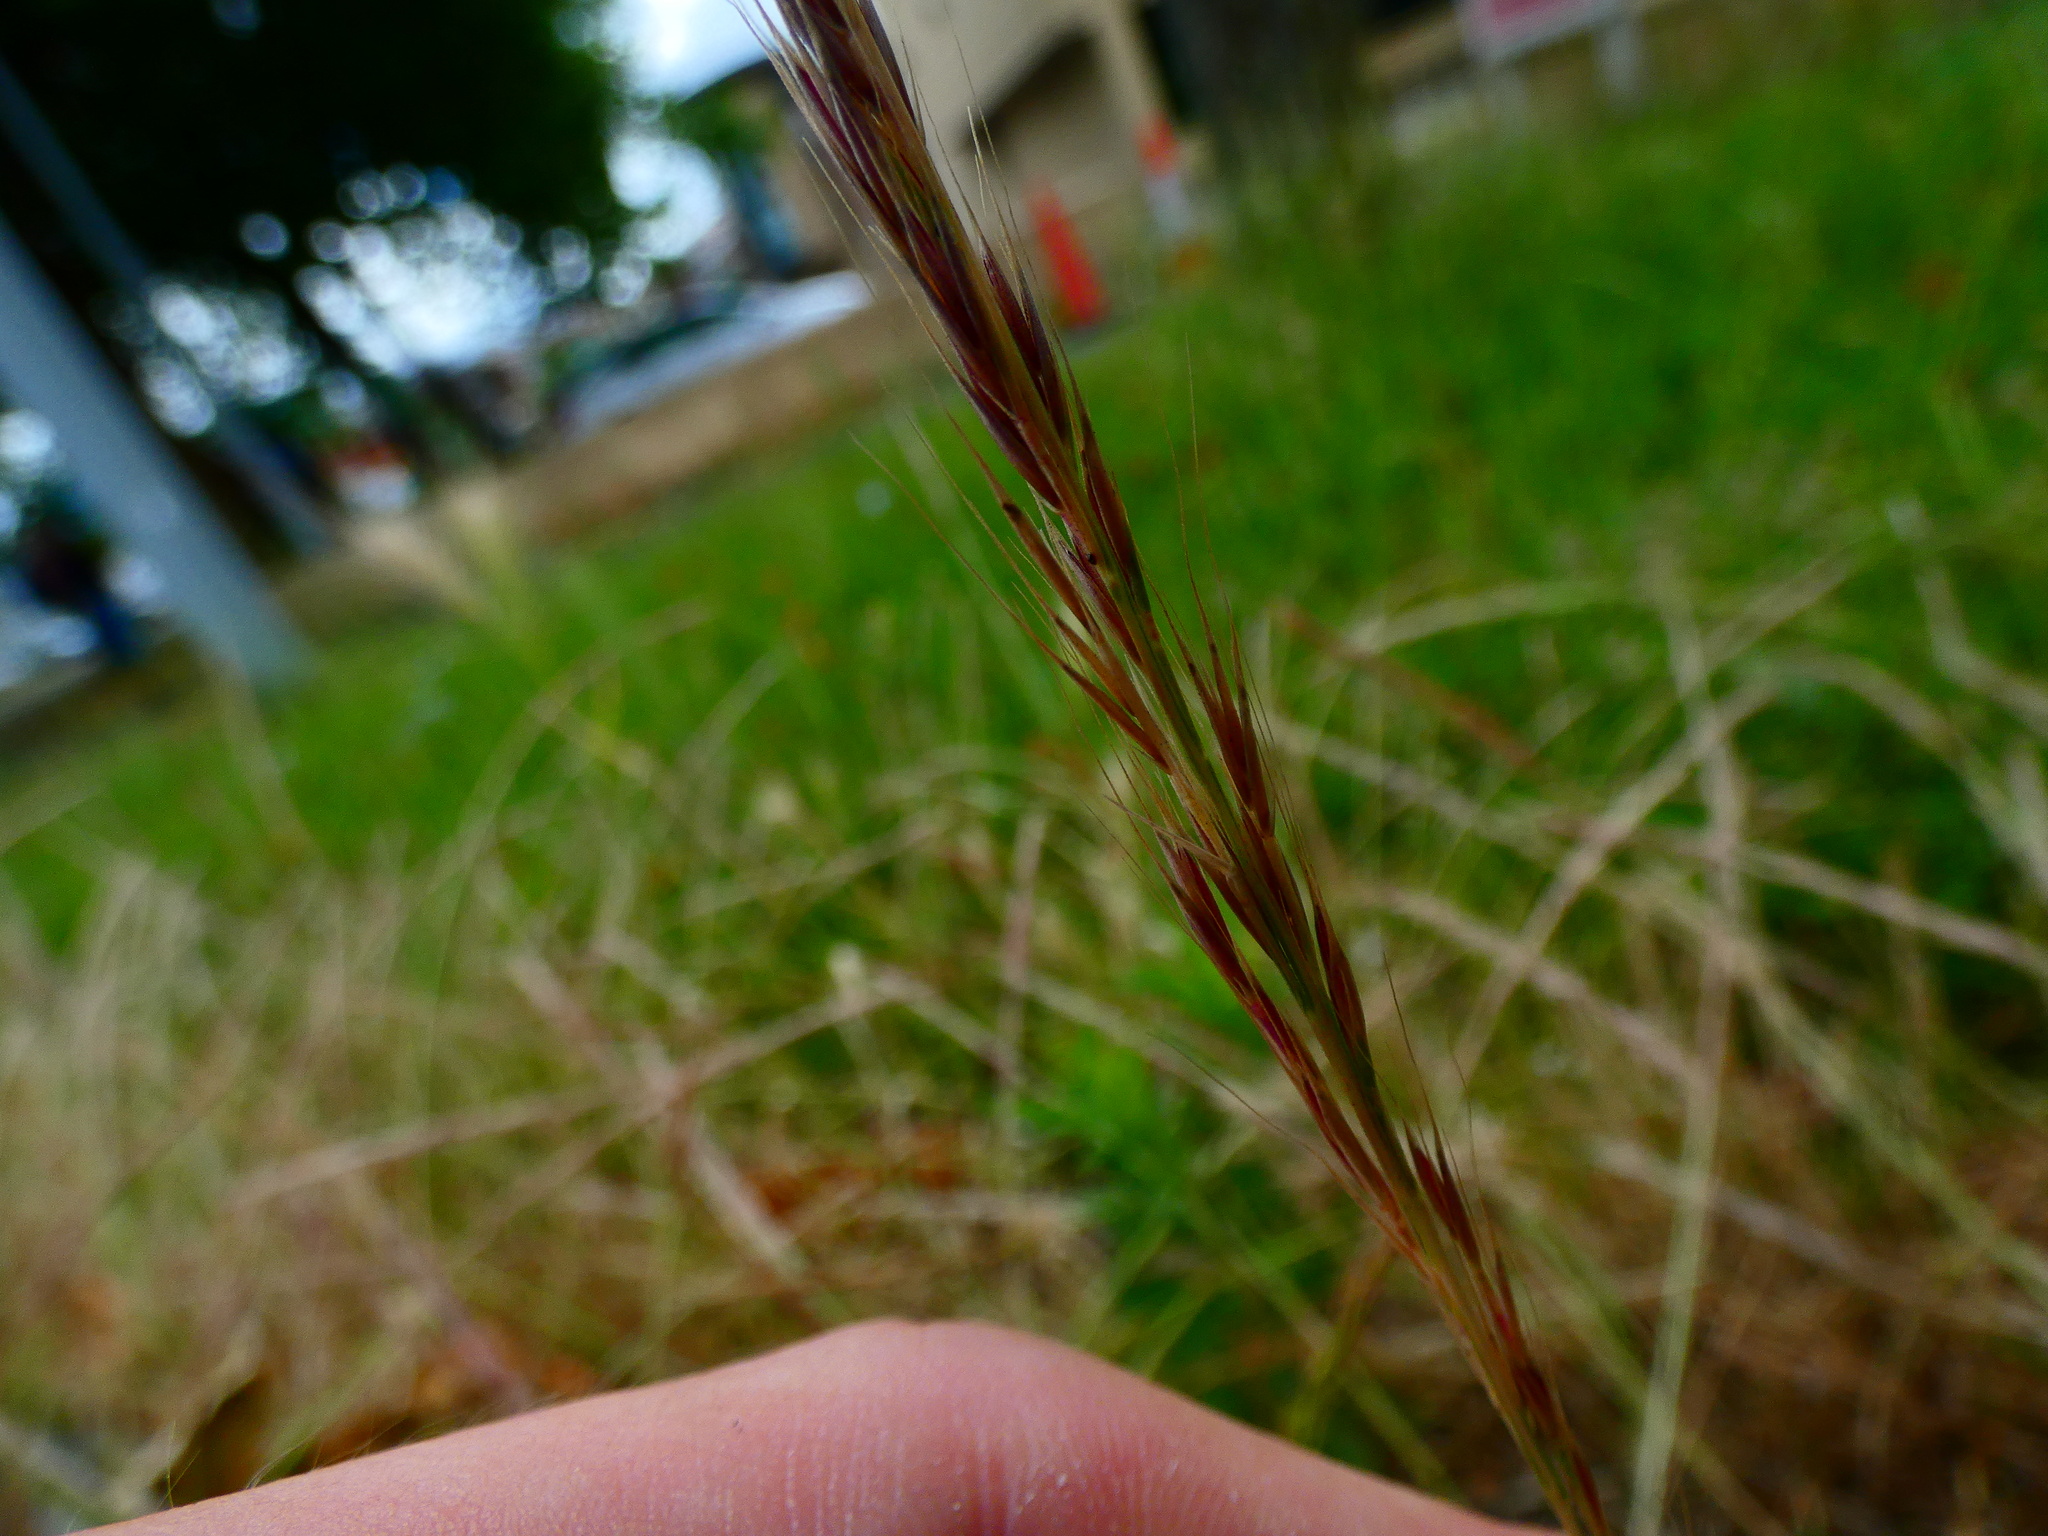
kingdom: Plantae
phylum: Tracheophyta
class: Liliopsida
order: Poales
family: Poaceae
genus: Festuca
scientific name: Festuca myuros
